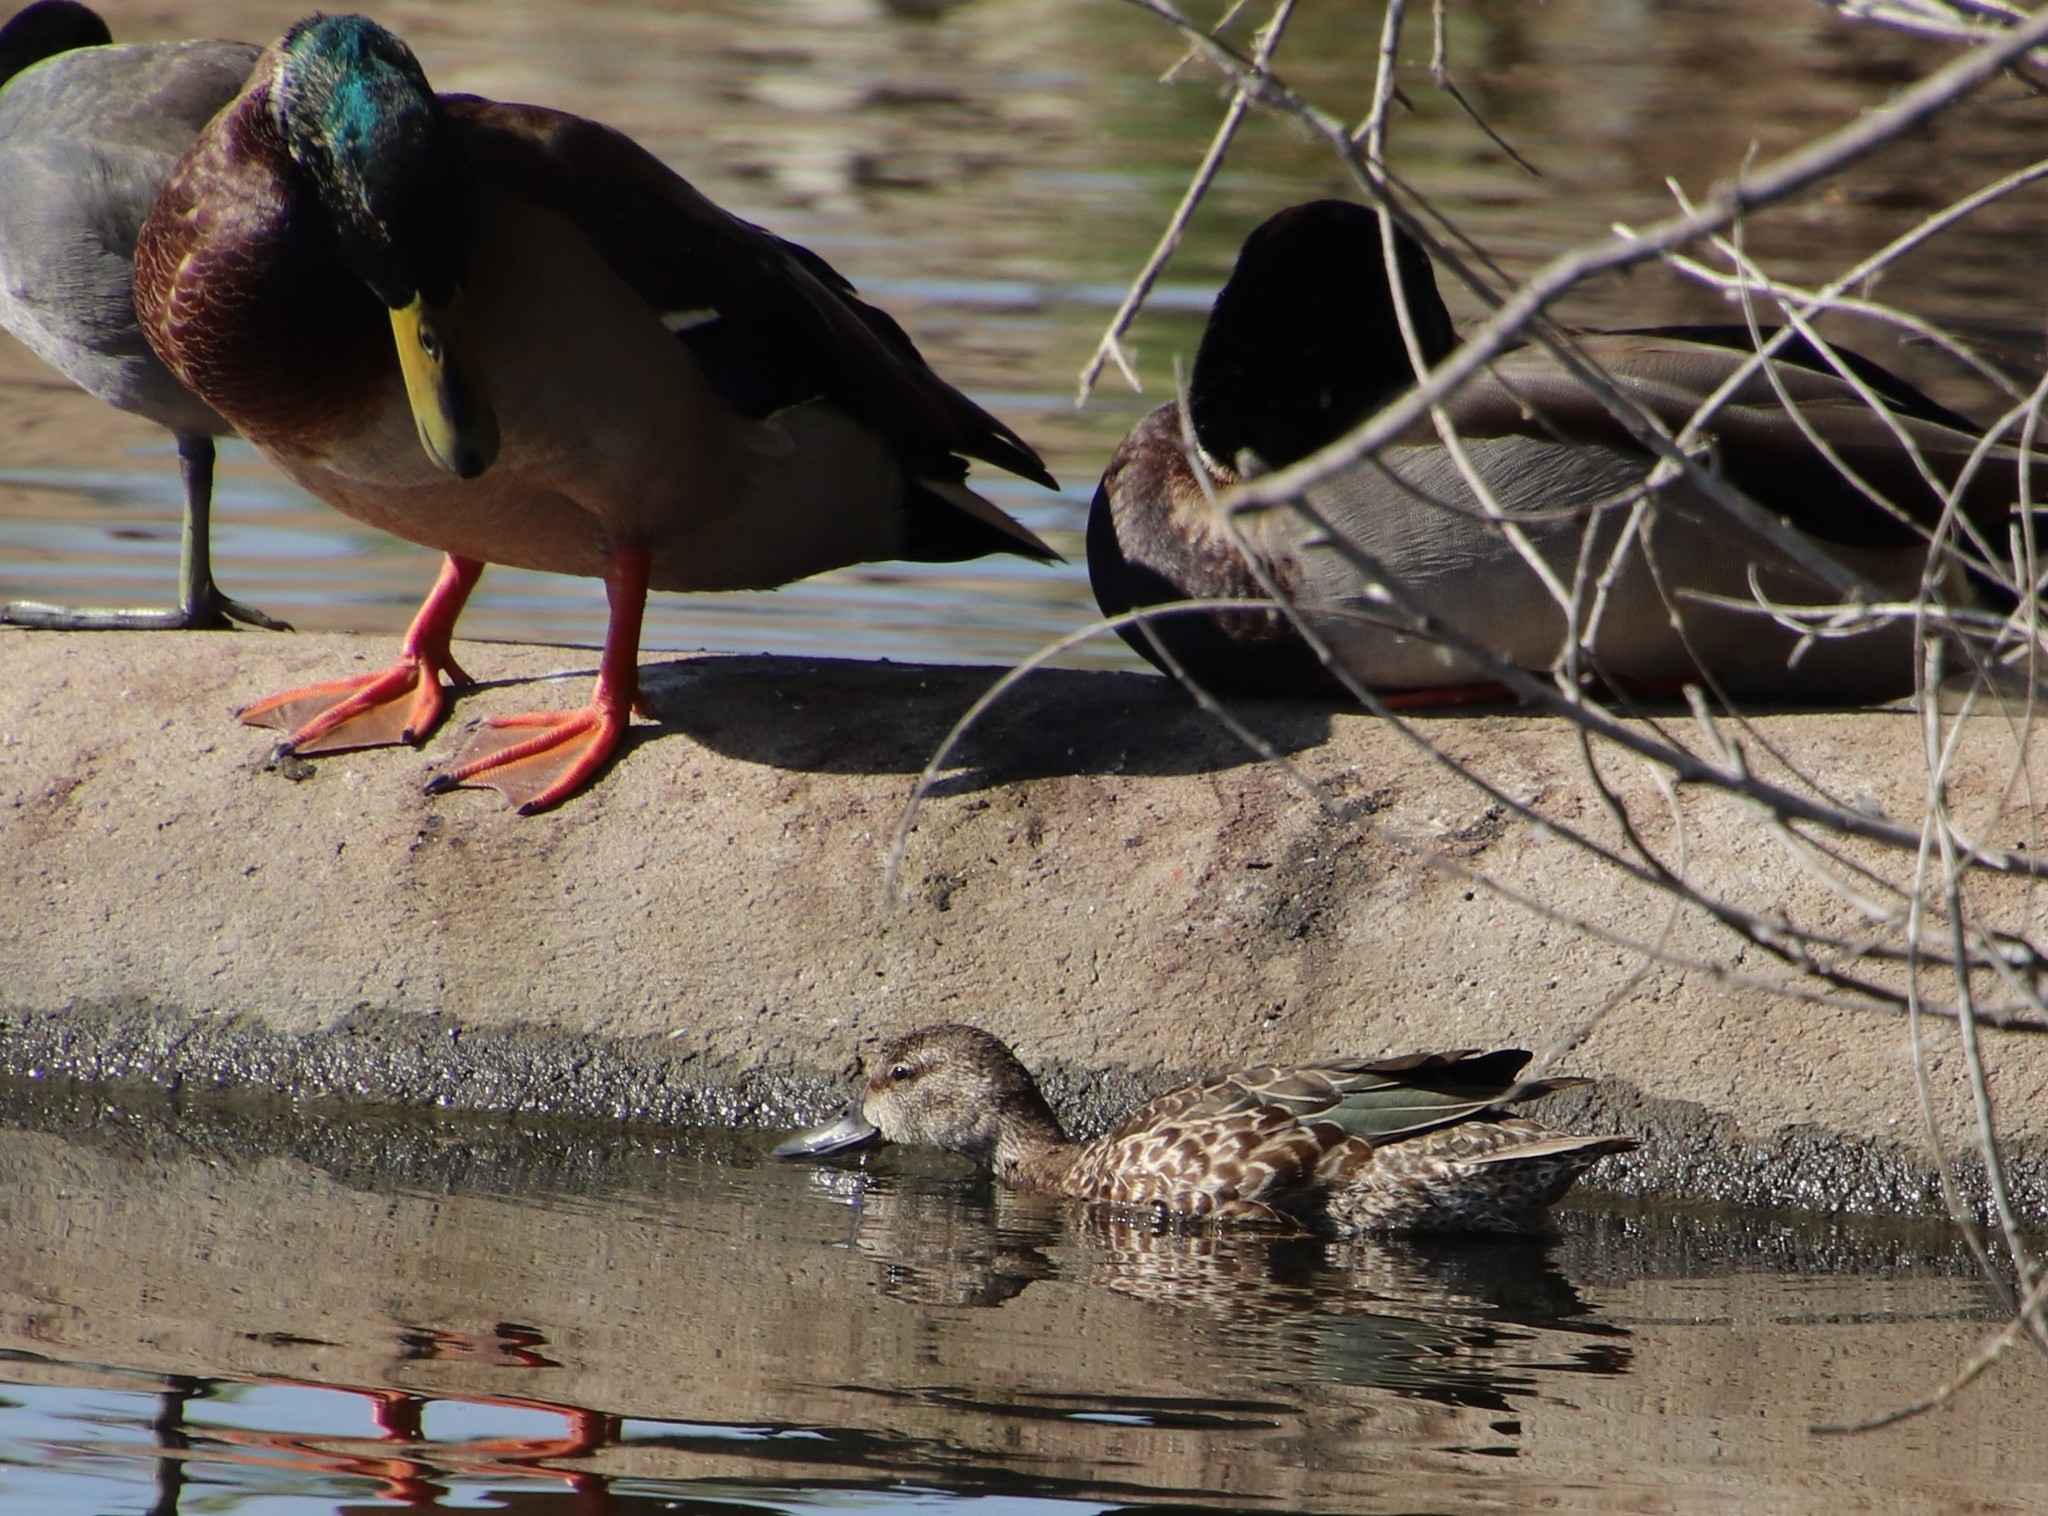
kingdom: Animalia
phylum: Chordata
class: Aves
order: Anseriformes
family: Anatidae
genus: Spatula
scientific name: Spatula discors
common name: Blue-winged teal
